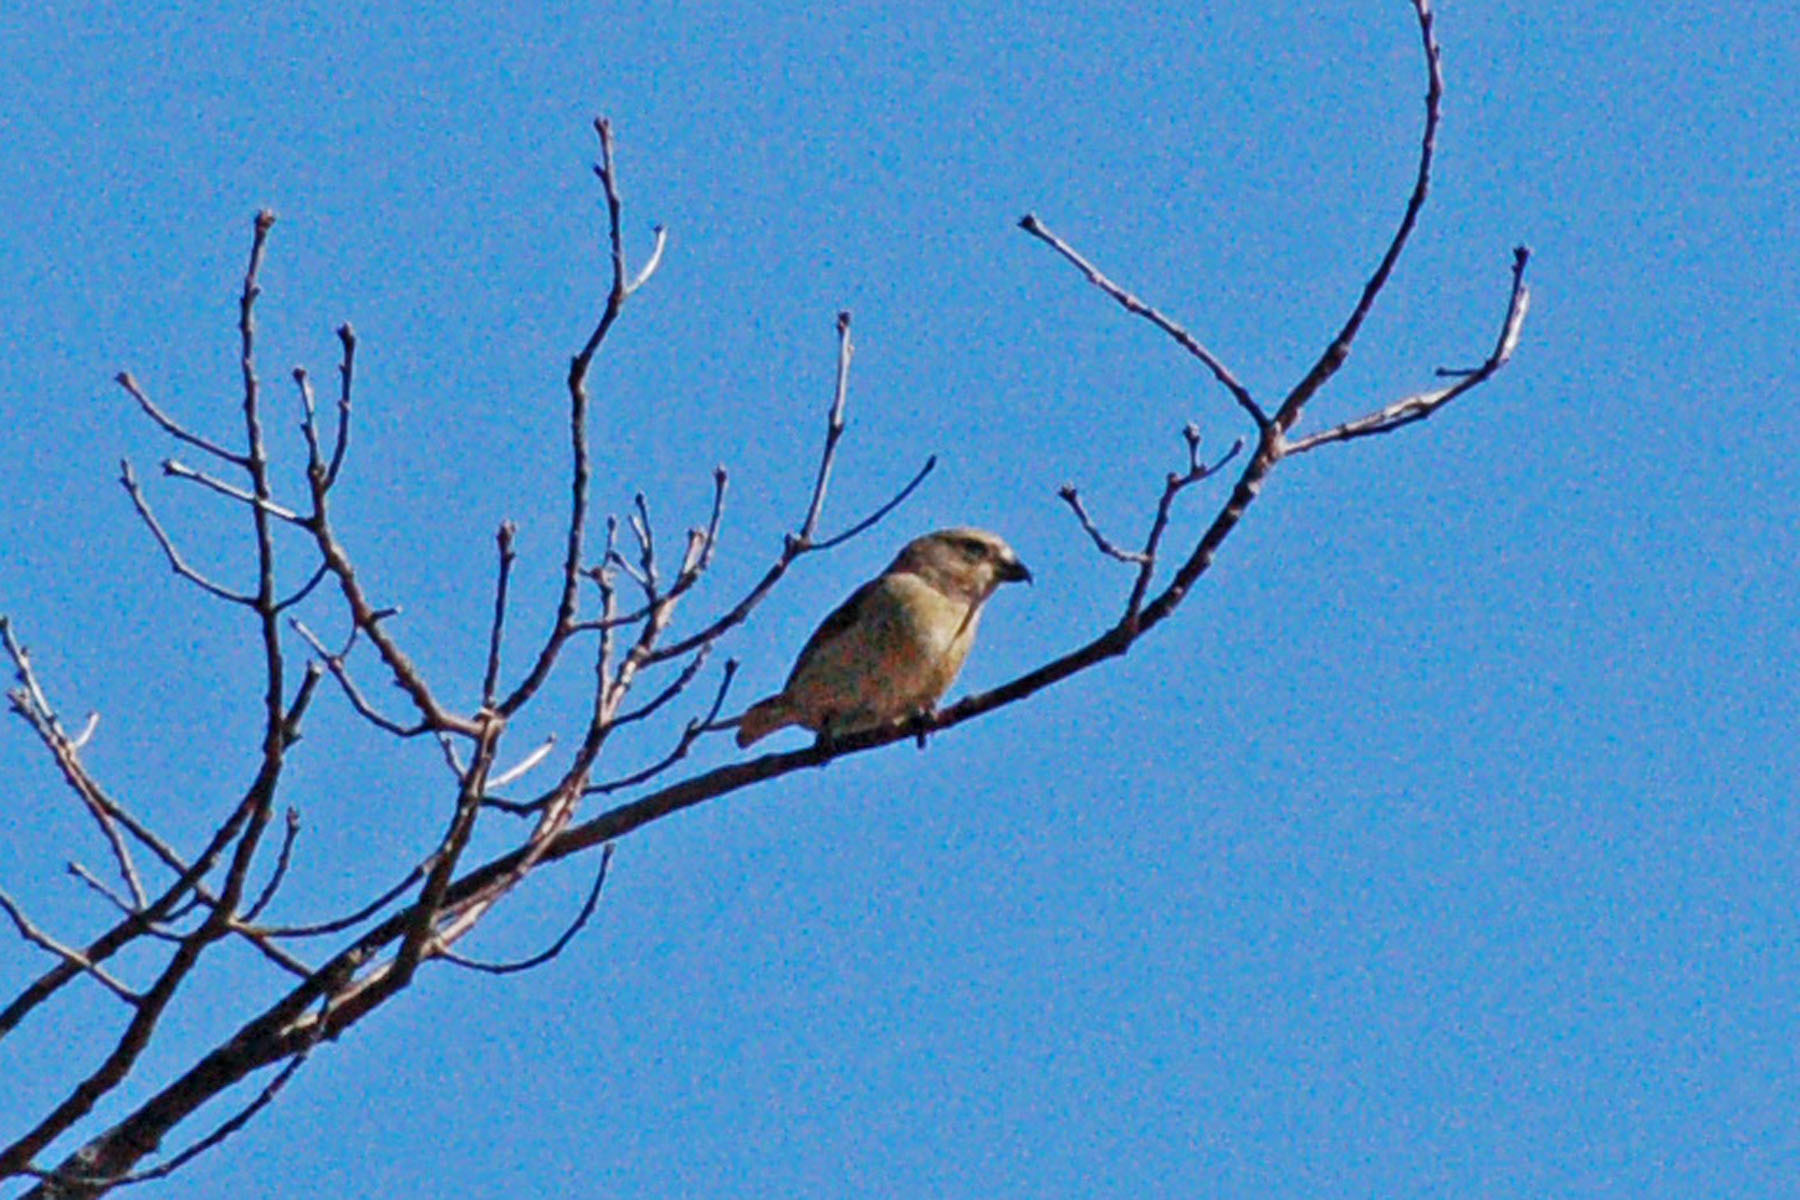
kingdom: Animalia
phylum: Chordata
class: Aves
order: Passeriformes
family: Fringillidae
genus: Loxia
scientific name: Loxia curvirostra
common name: Red crossbill
